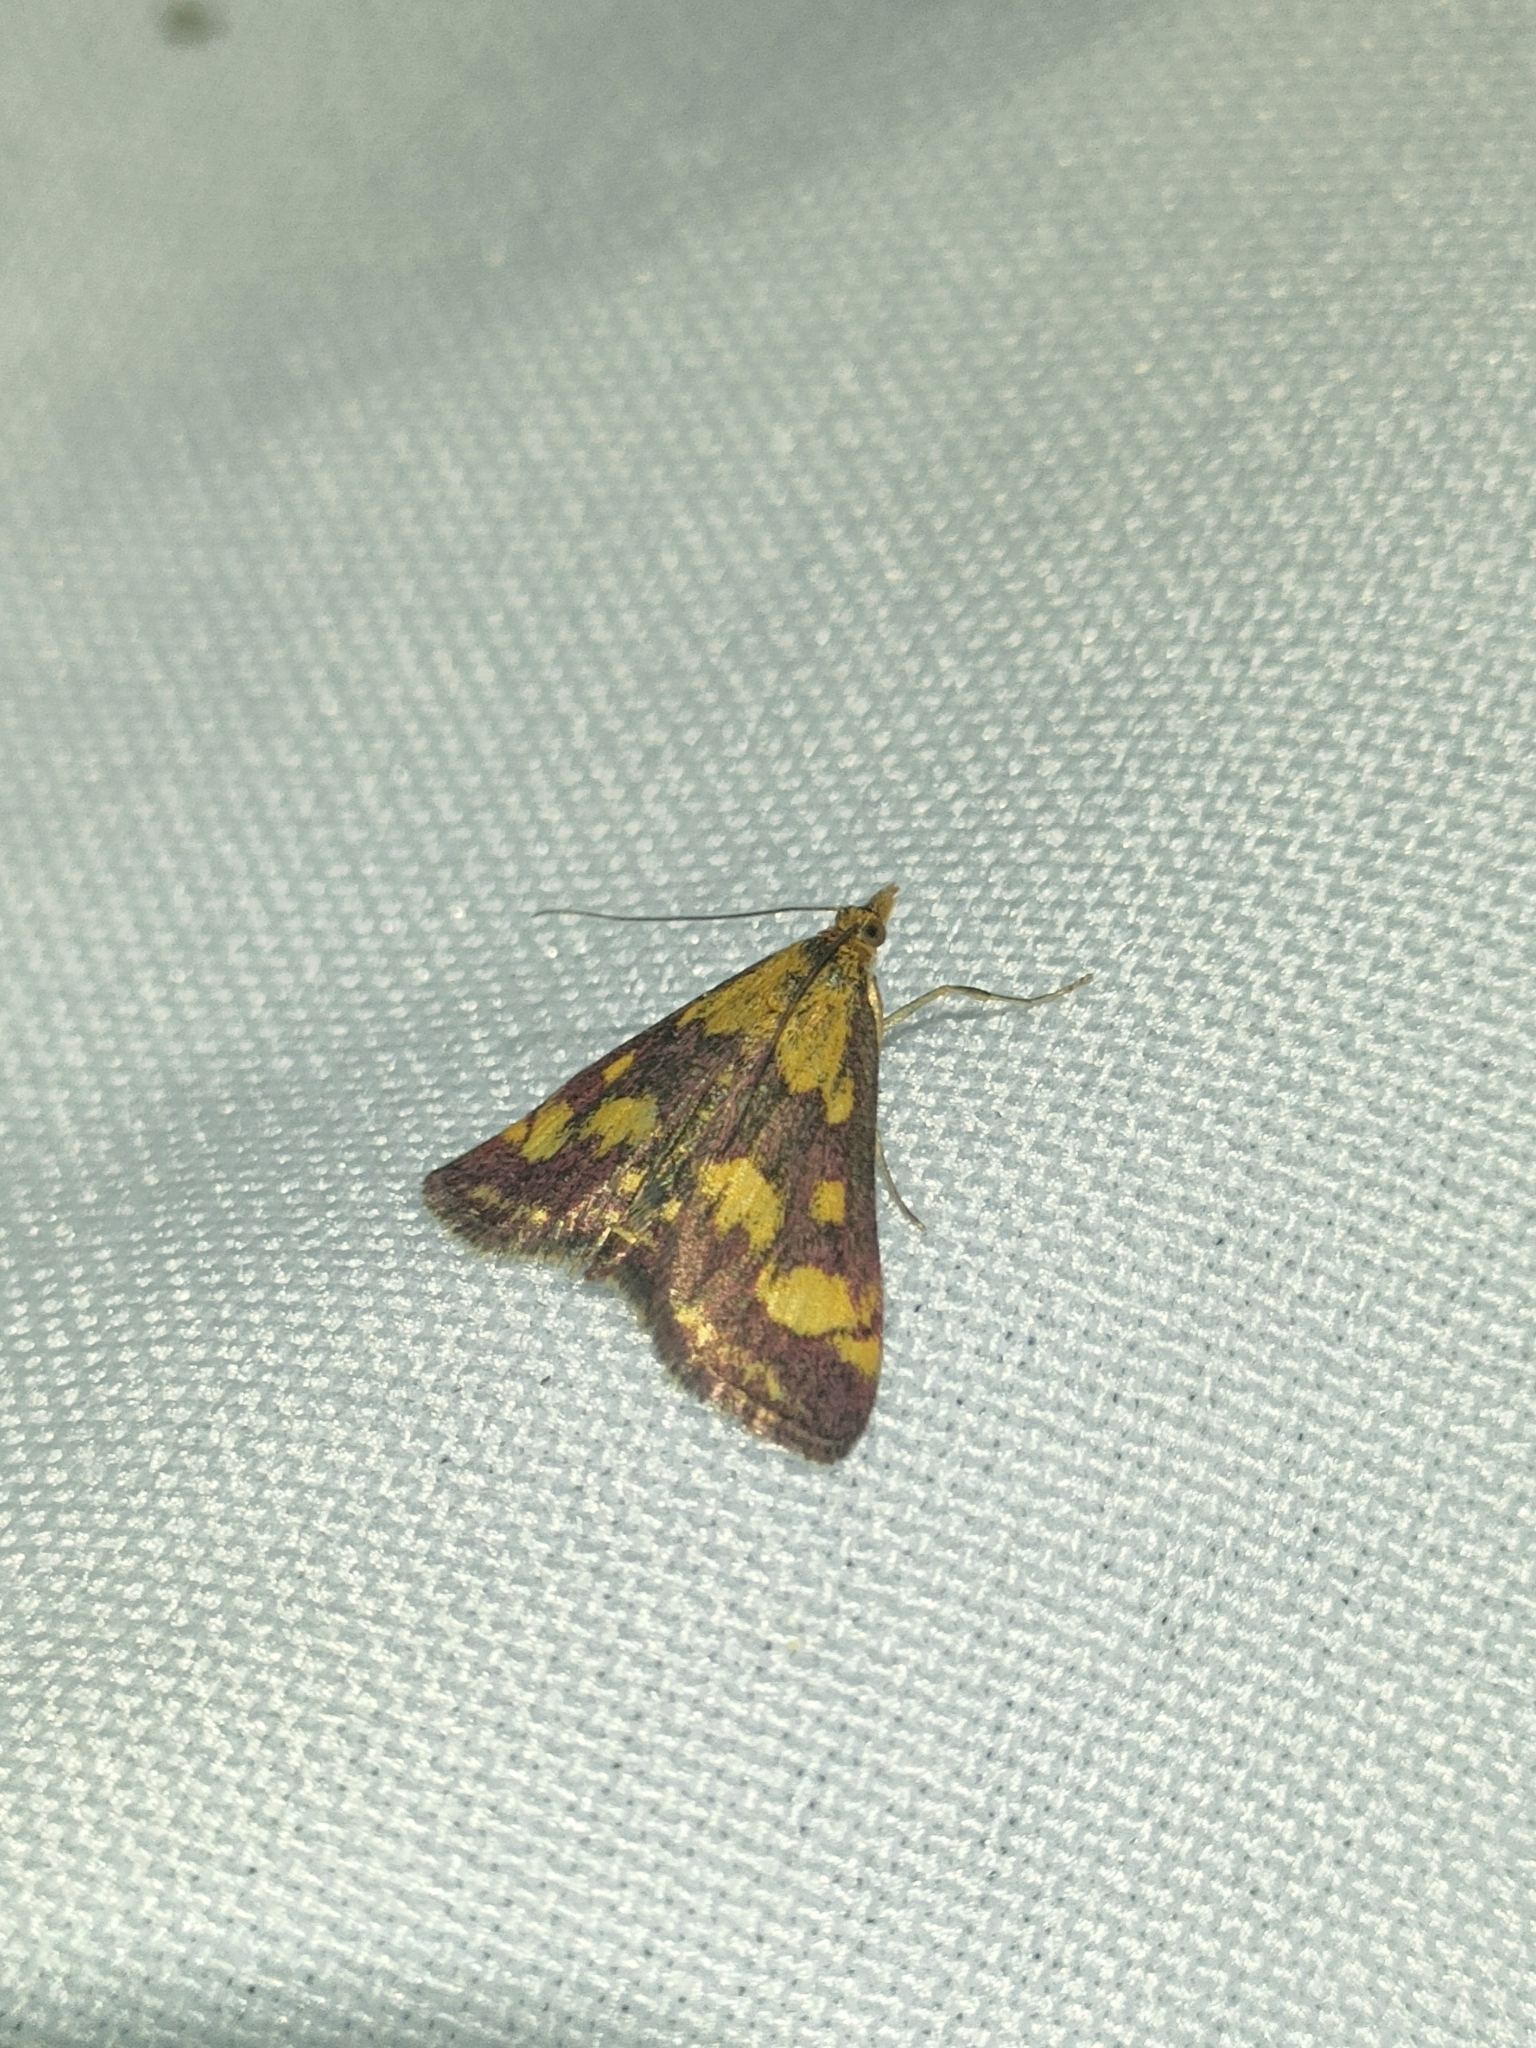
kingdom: Animalia
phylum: Arthropoda
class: Insecta
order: Lepidoptera
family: Crambidae
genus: Pyrausta
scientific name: Pyrausta purpuralis
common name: Common purple & gold
